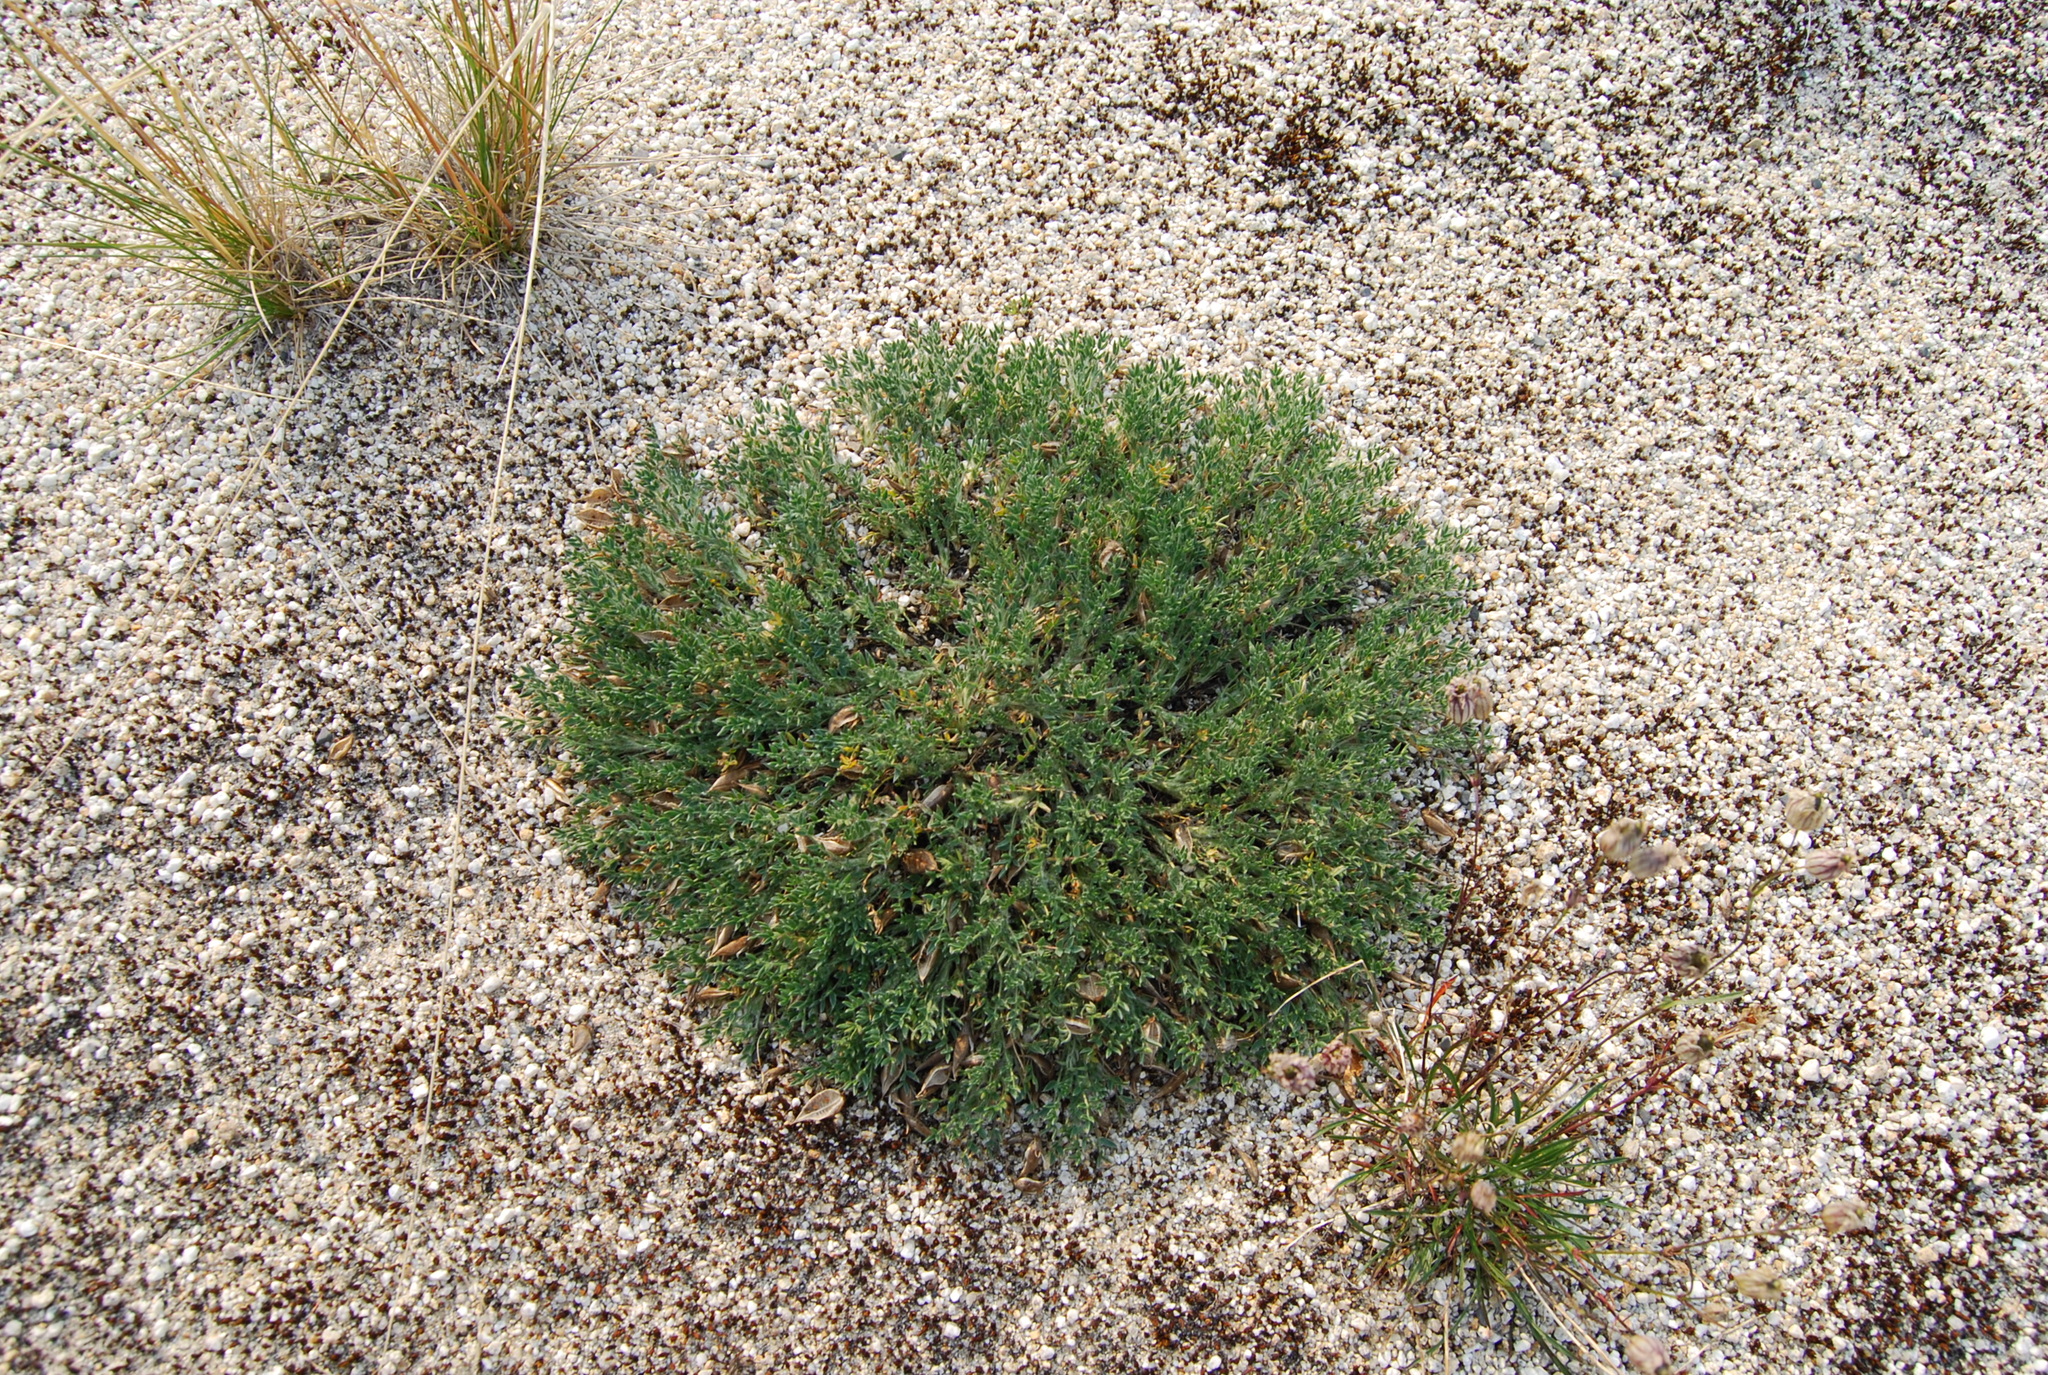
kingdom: Plantae
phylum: Tracheophyta
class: Magnoliopsida
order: Fabales
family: Fabaceae
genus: Oxytropis
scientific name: Oxytropis susumanica
